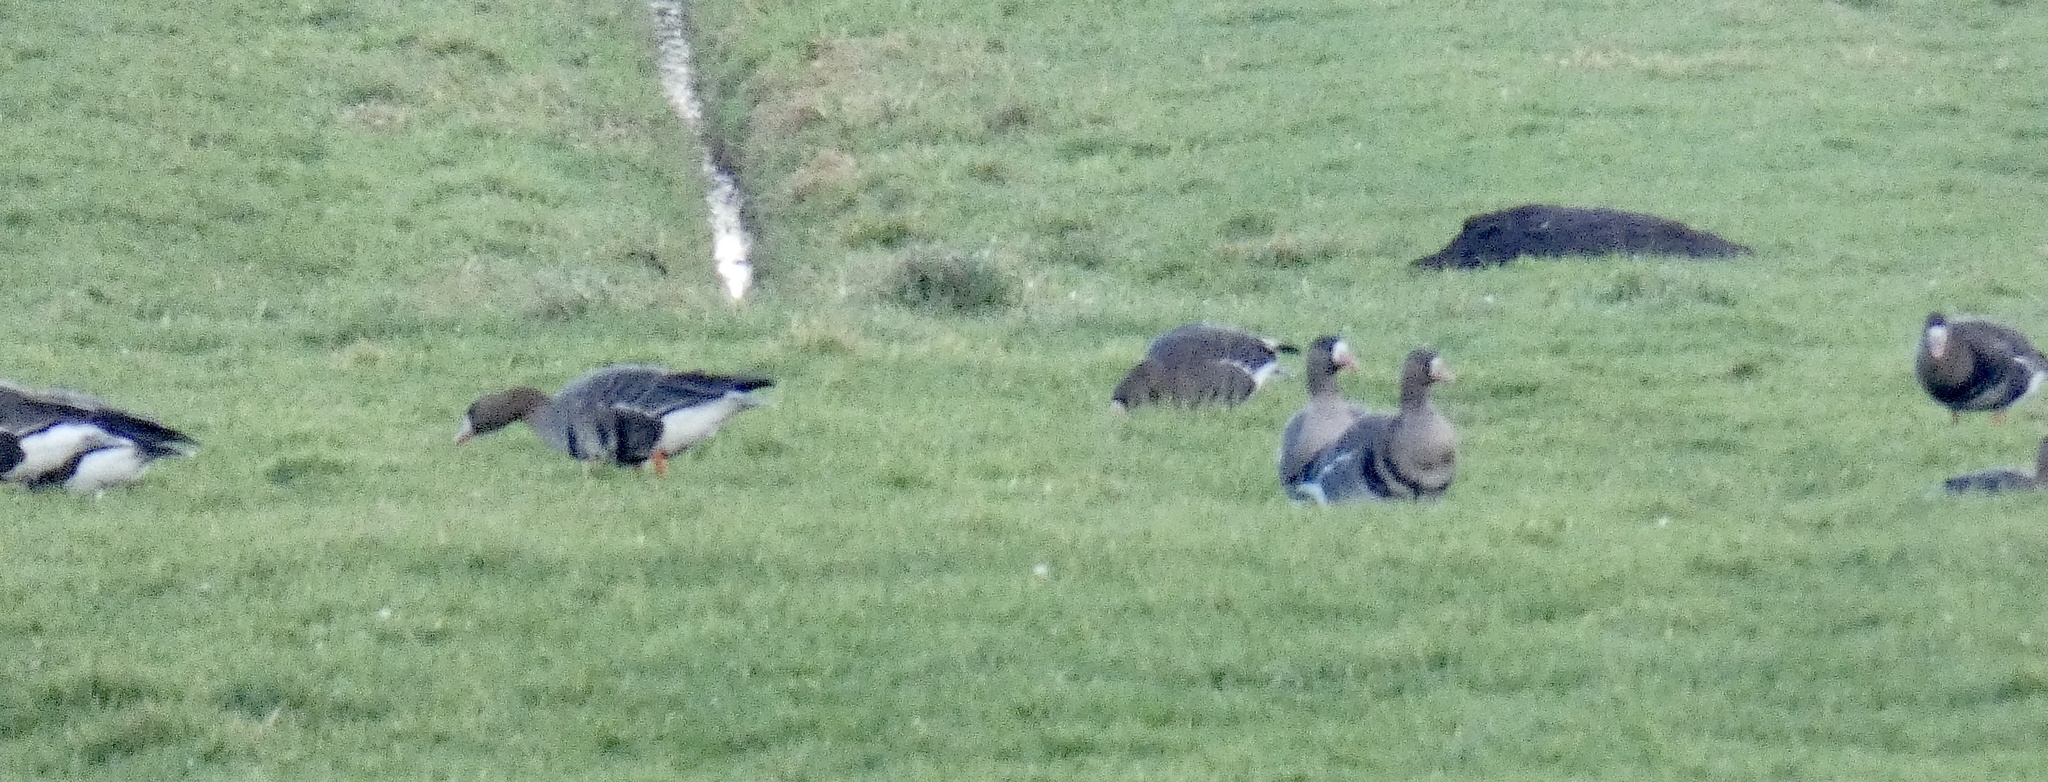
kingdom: Animalia
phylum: Chordata
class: Aves
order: Anseriformes
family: Anatidae
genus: Anser
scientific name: Anser albifrons
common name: Greater white-fronted goose
